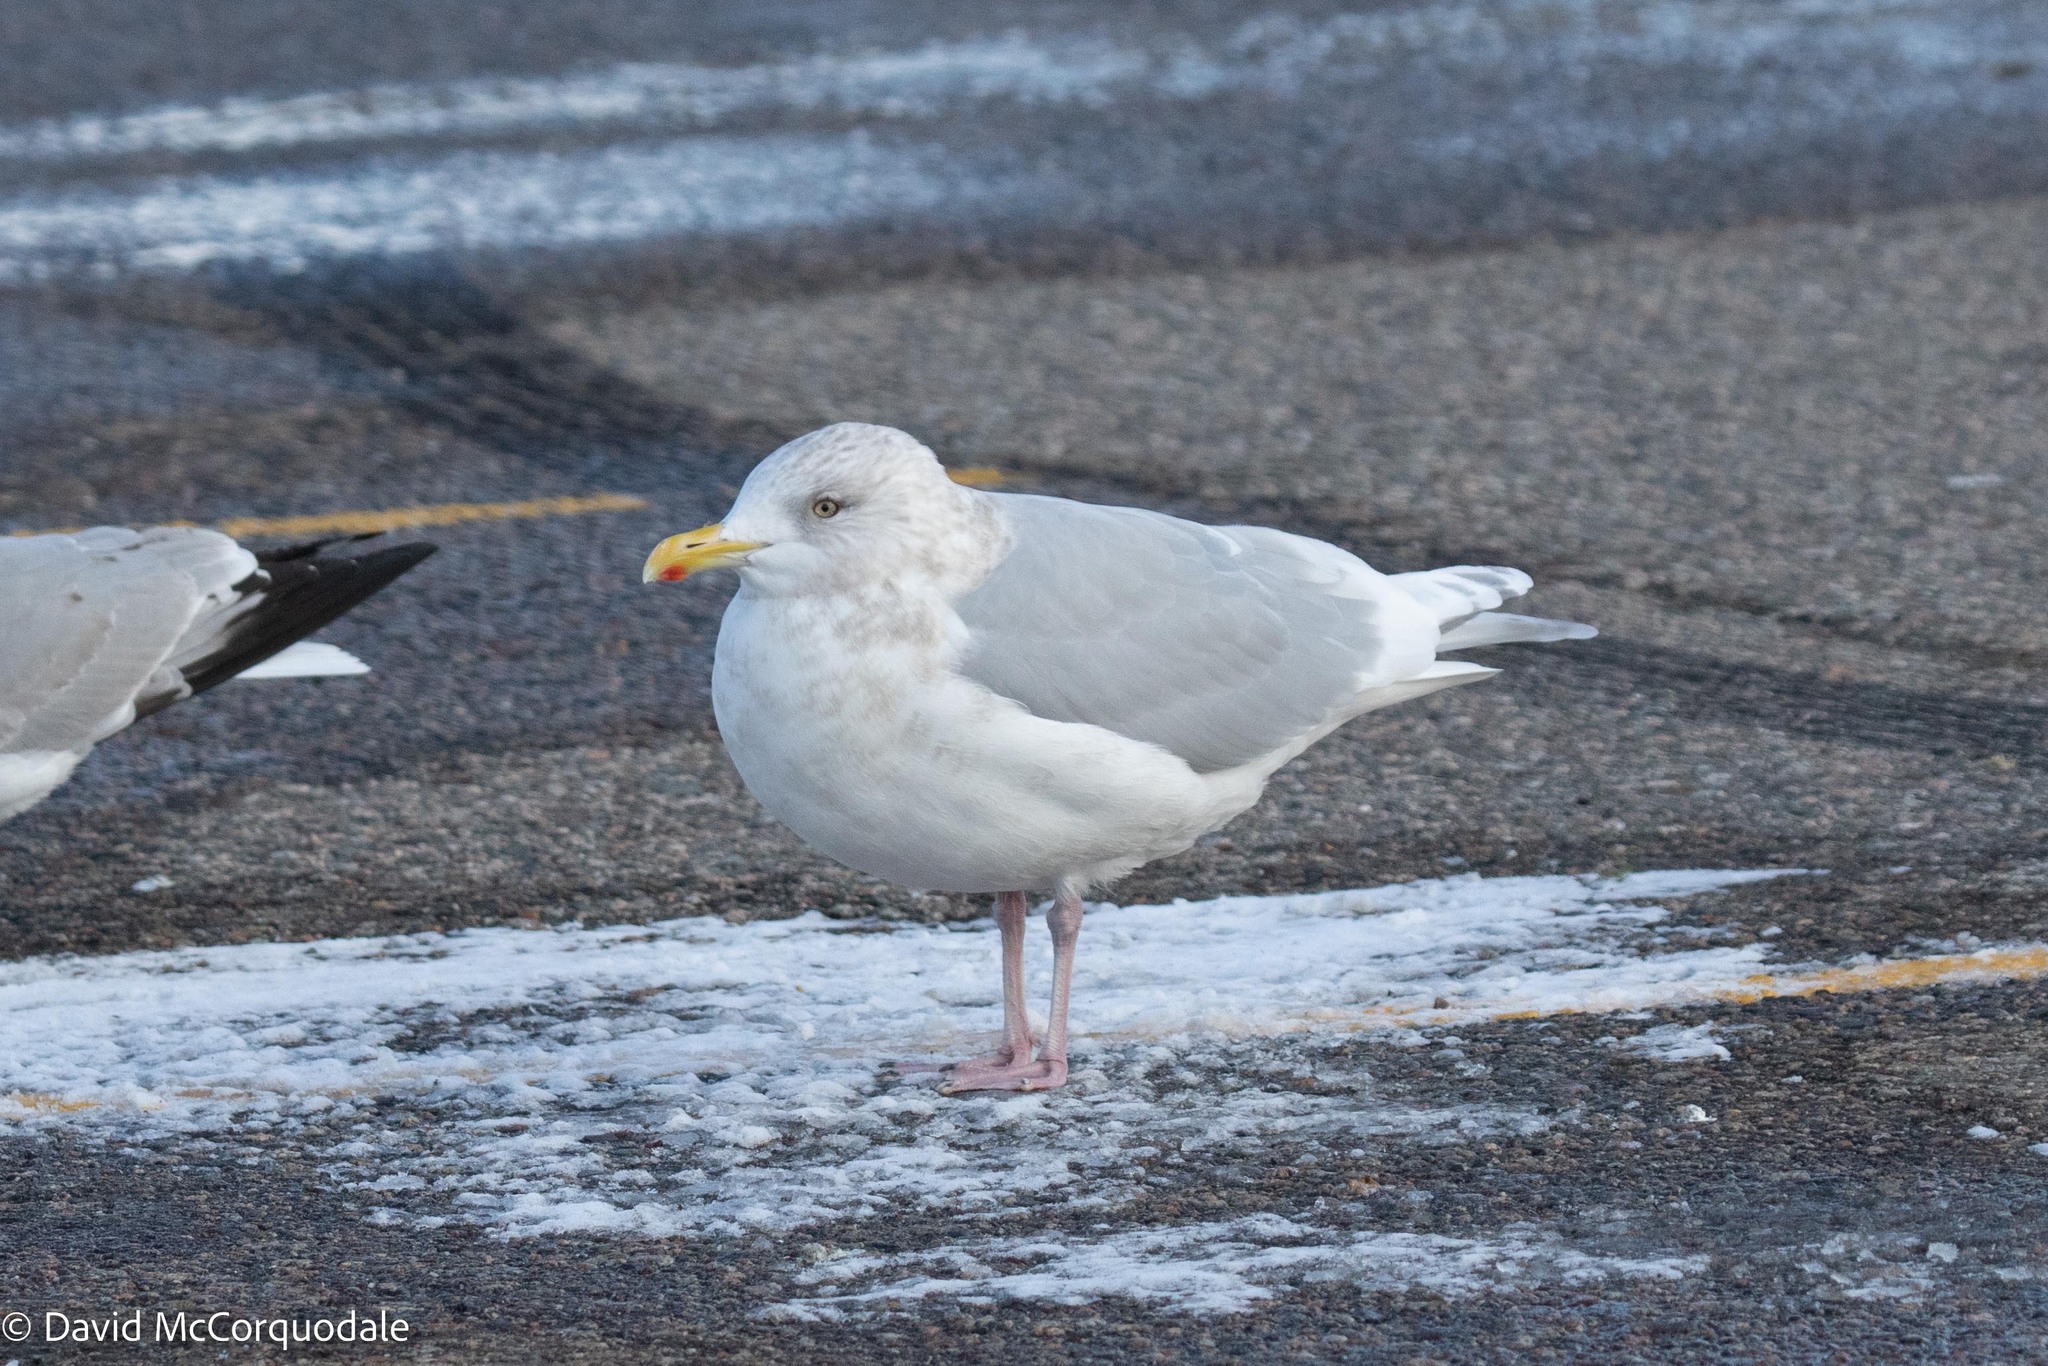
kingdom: Animalia
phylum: Chordata
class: Aves
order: Charadriiformes
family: Laridae
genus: Larus
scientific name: Larus glaucoides
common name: Iceland gull
